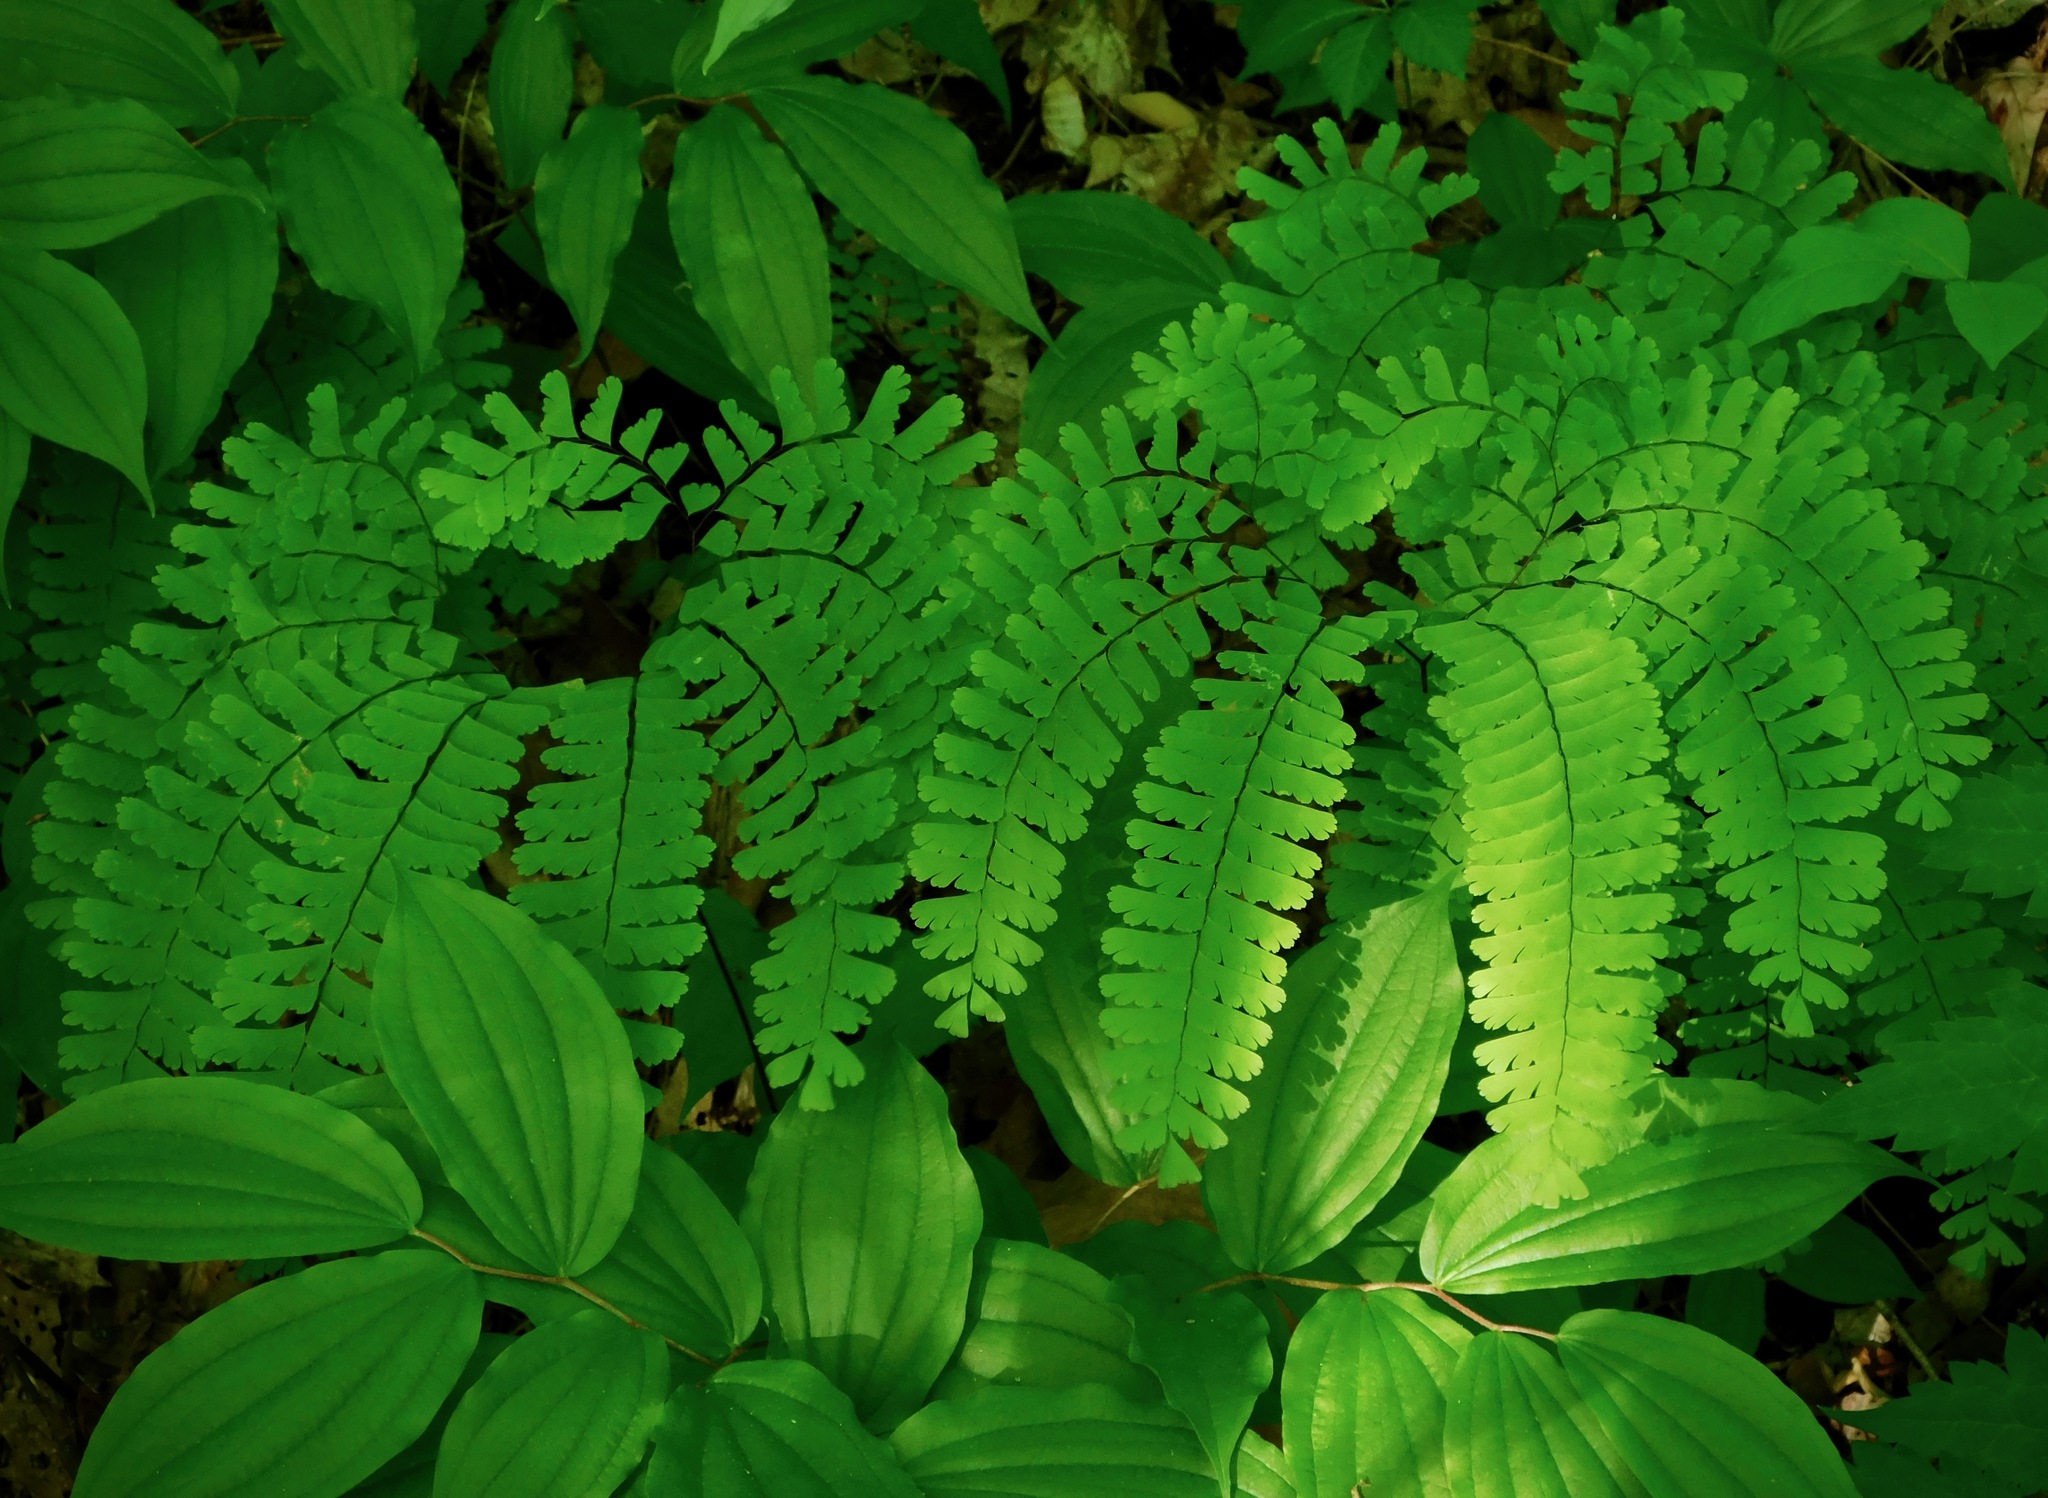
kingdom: Plantae
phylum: Tracheophyta
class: Polypodiopsida
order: Polypodiales
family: Pteridaceae
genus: Adiantum
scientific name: Adiantum pedatum
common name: Five-finger fern
